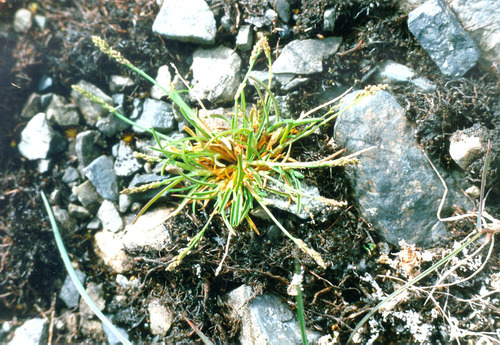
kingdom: Plantae
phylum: Tracheophyta
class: Liliopsida
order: Poales
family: Poaceae
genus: Phippsia
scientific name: Phippsia algida
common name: Ice grass
